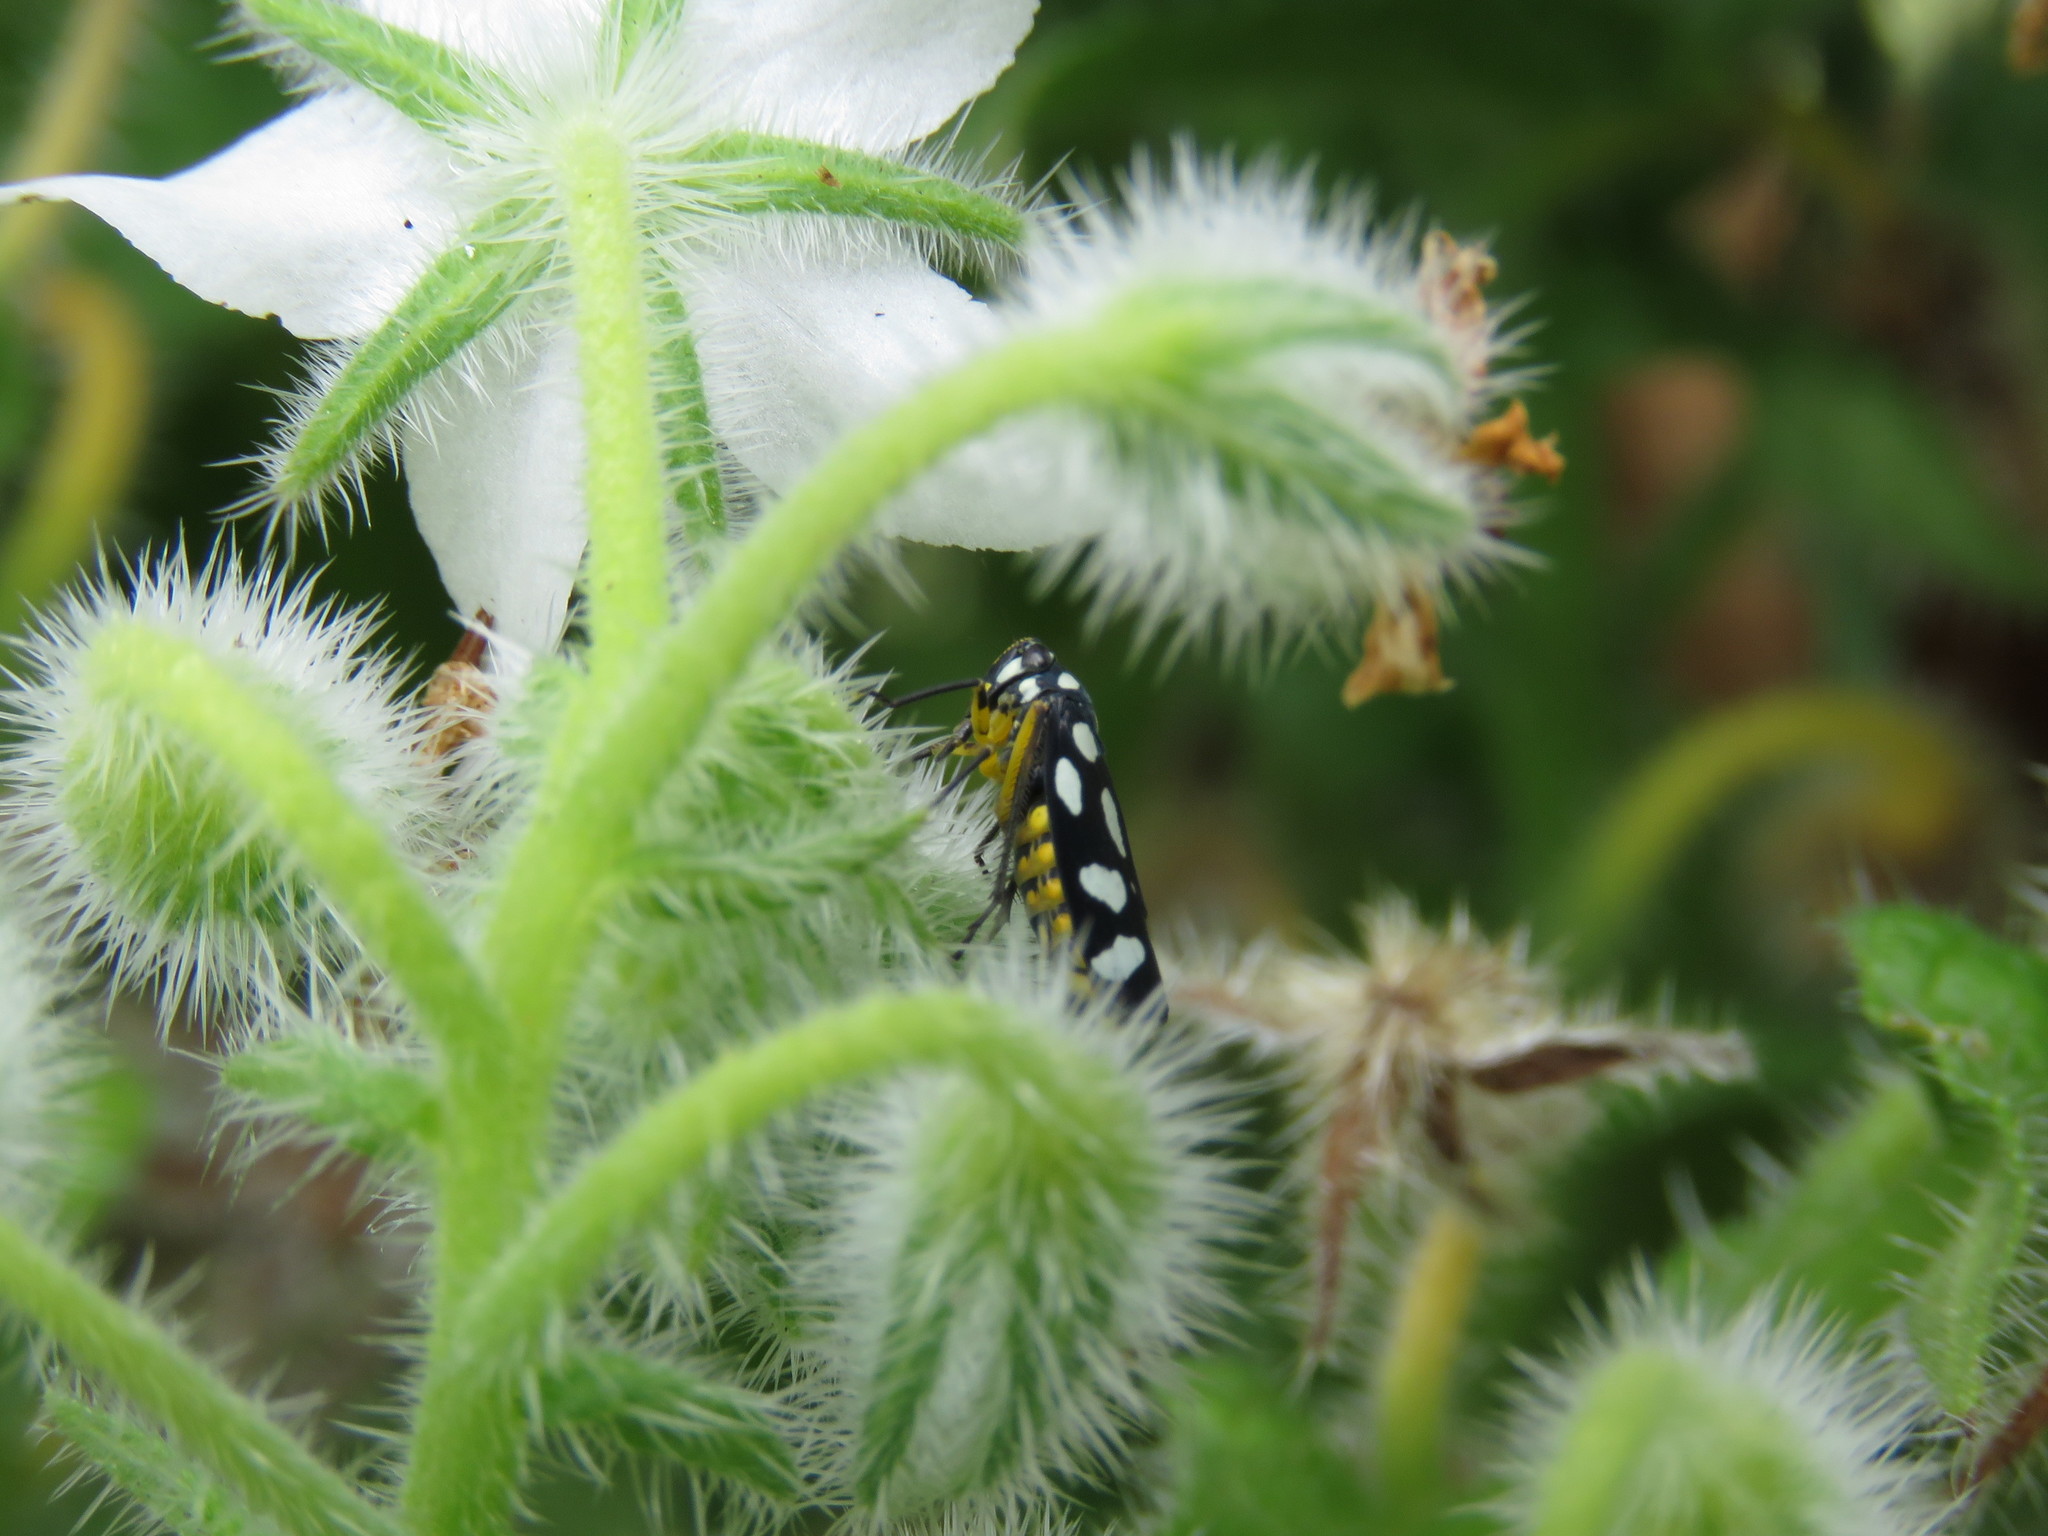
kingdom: Animalia
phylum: Arthropoda
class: Insecta
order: Hemiptera
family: Cicadellidae
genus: Stehlikiana
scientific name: Stehlikiana crassa
